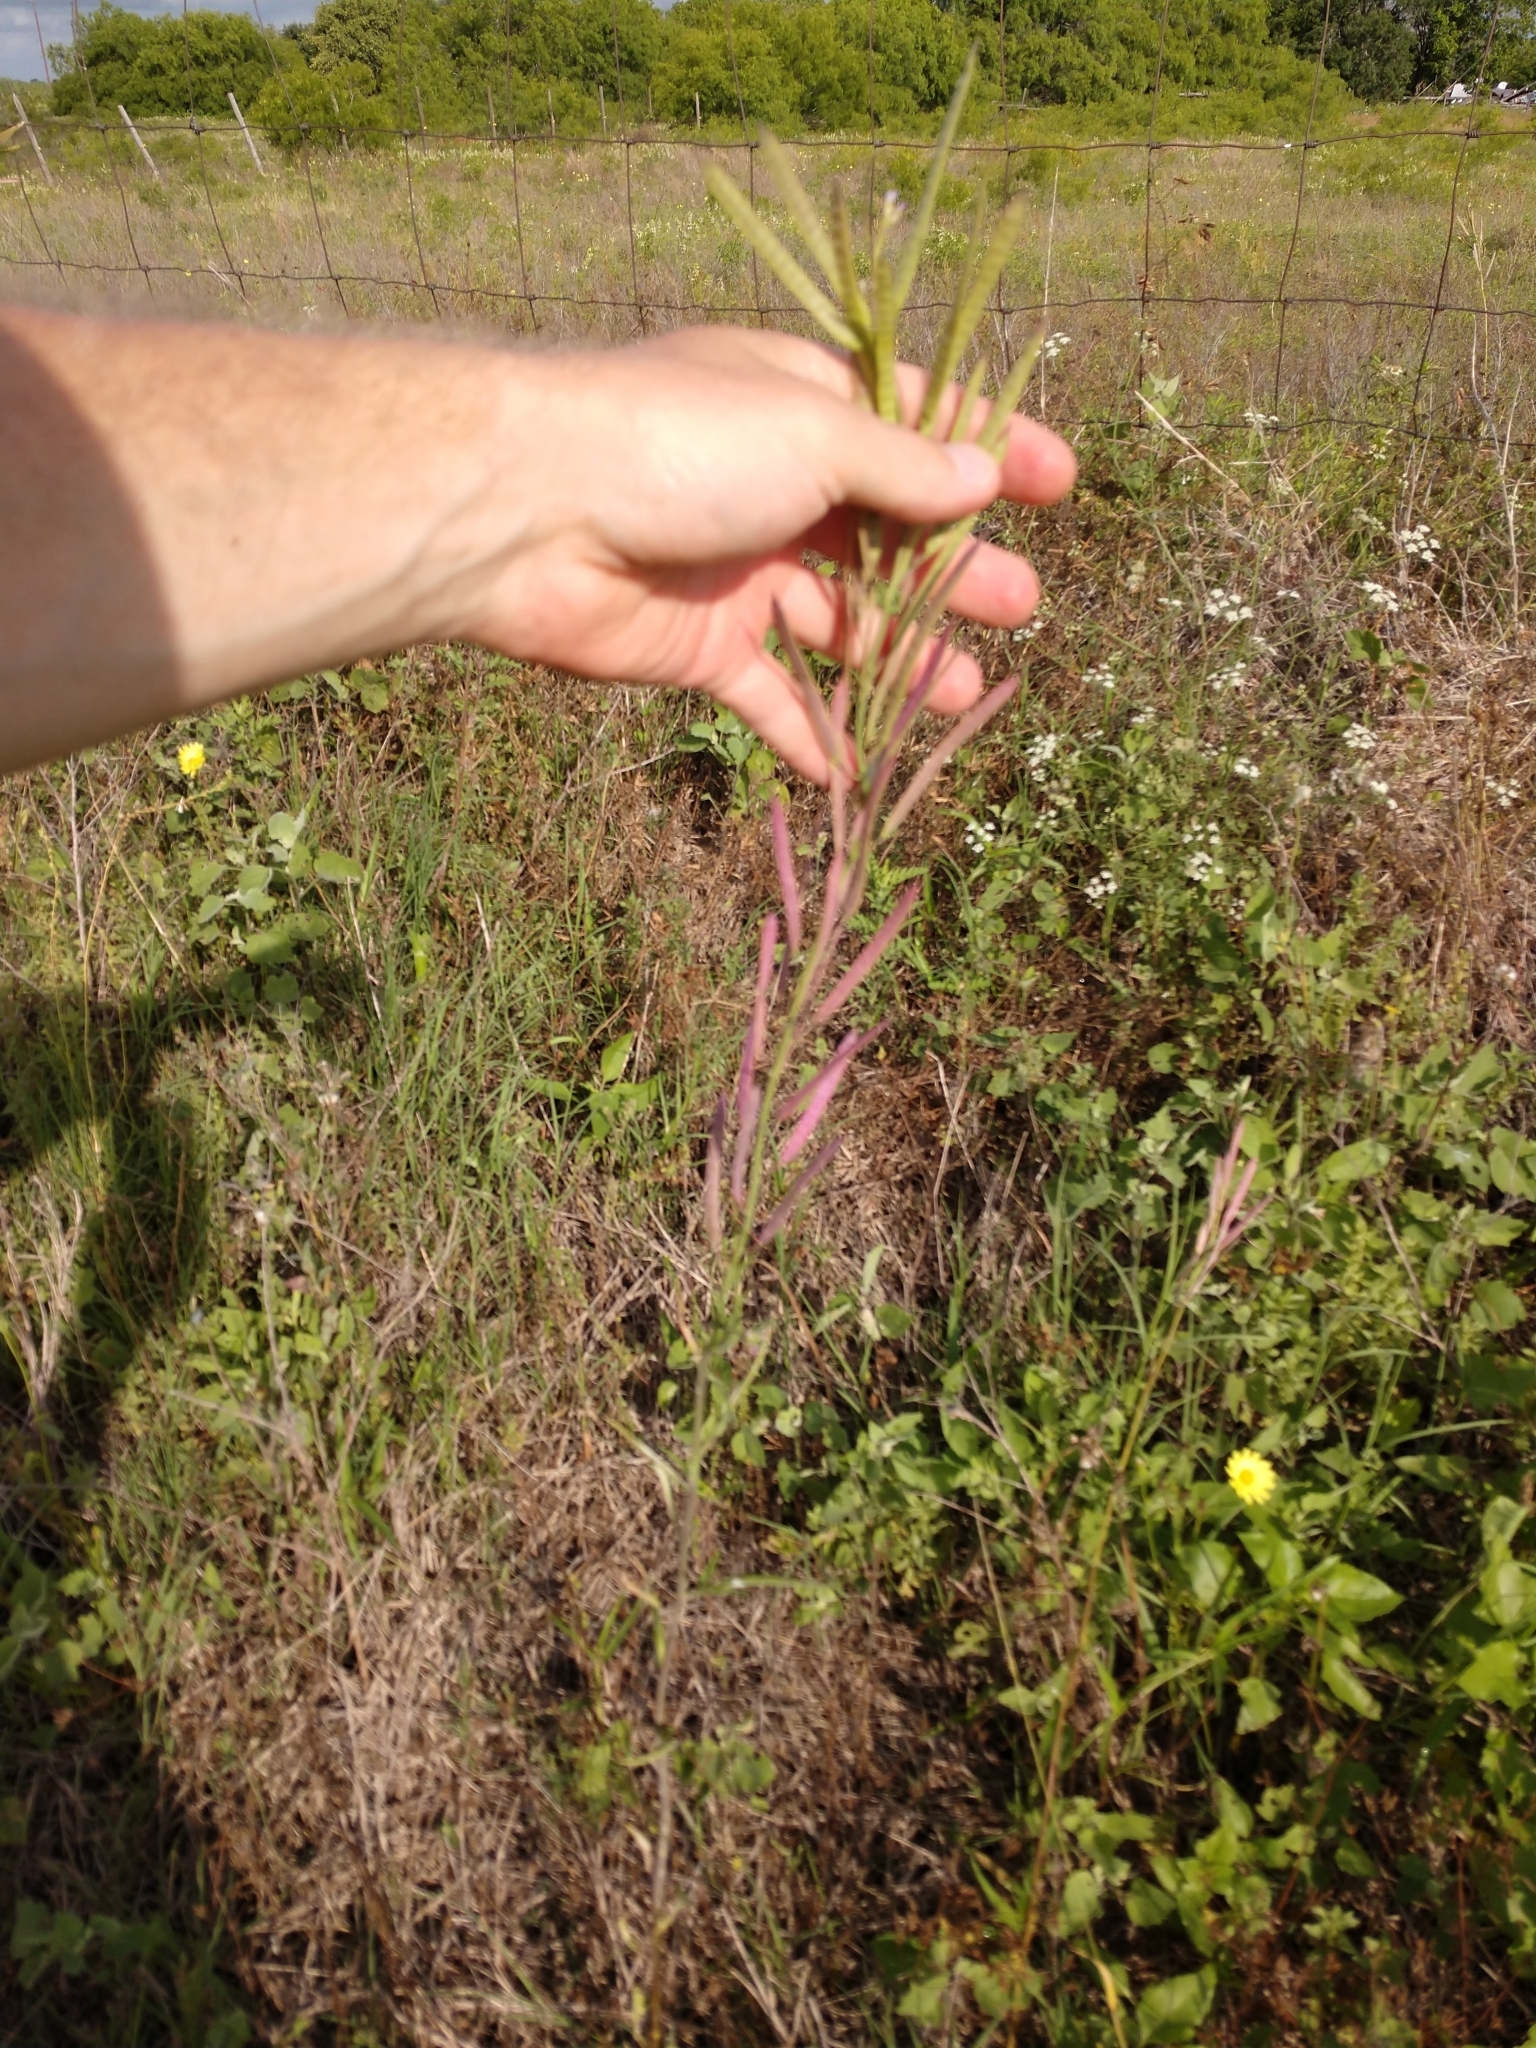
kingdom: Plantae
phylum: Tracheophyta
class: Magnoliopsida
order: Brassicales
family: Brassicaceae
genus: Streptanthus
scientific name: Streptanthus petiolaris
